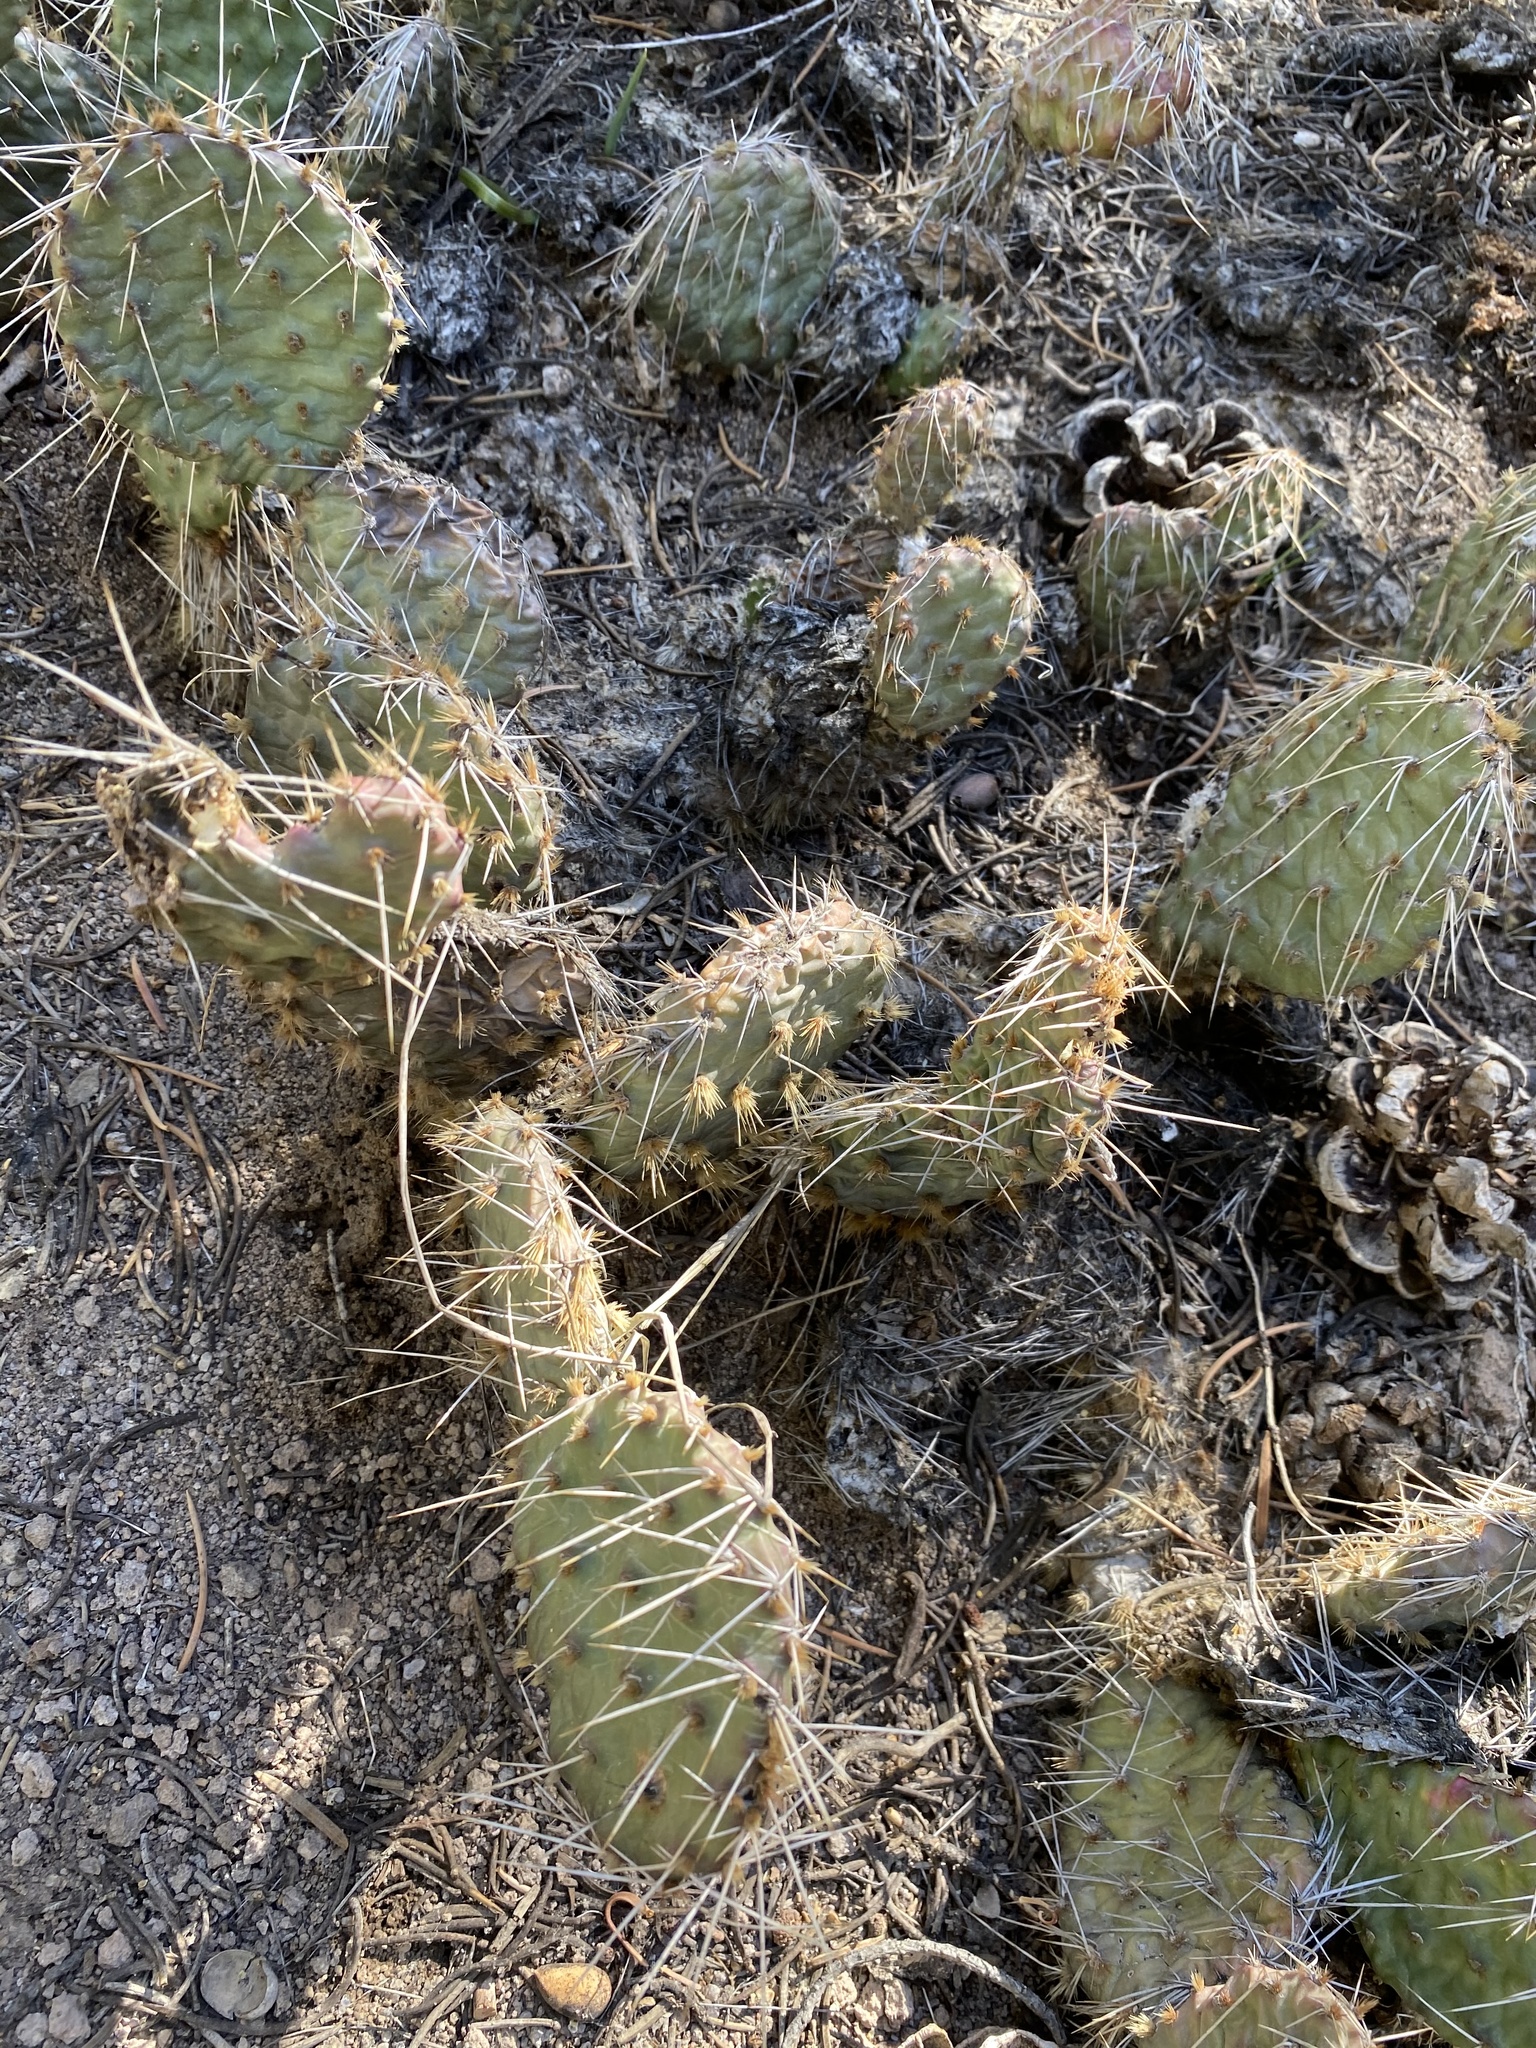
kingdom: Plantae
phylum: Tracheophyta
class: Magnoliopsida
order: Caryophyllales
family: Cactaceae
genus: Opuntia
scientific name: Opuntia polyacantha
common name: Plains prickly-pear
